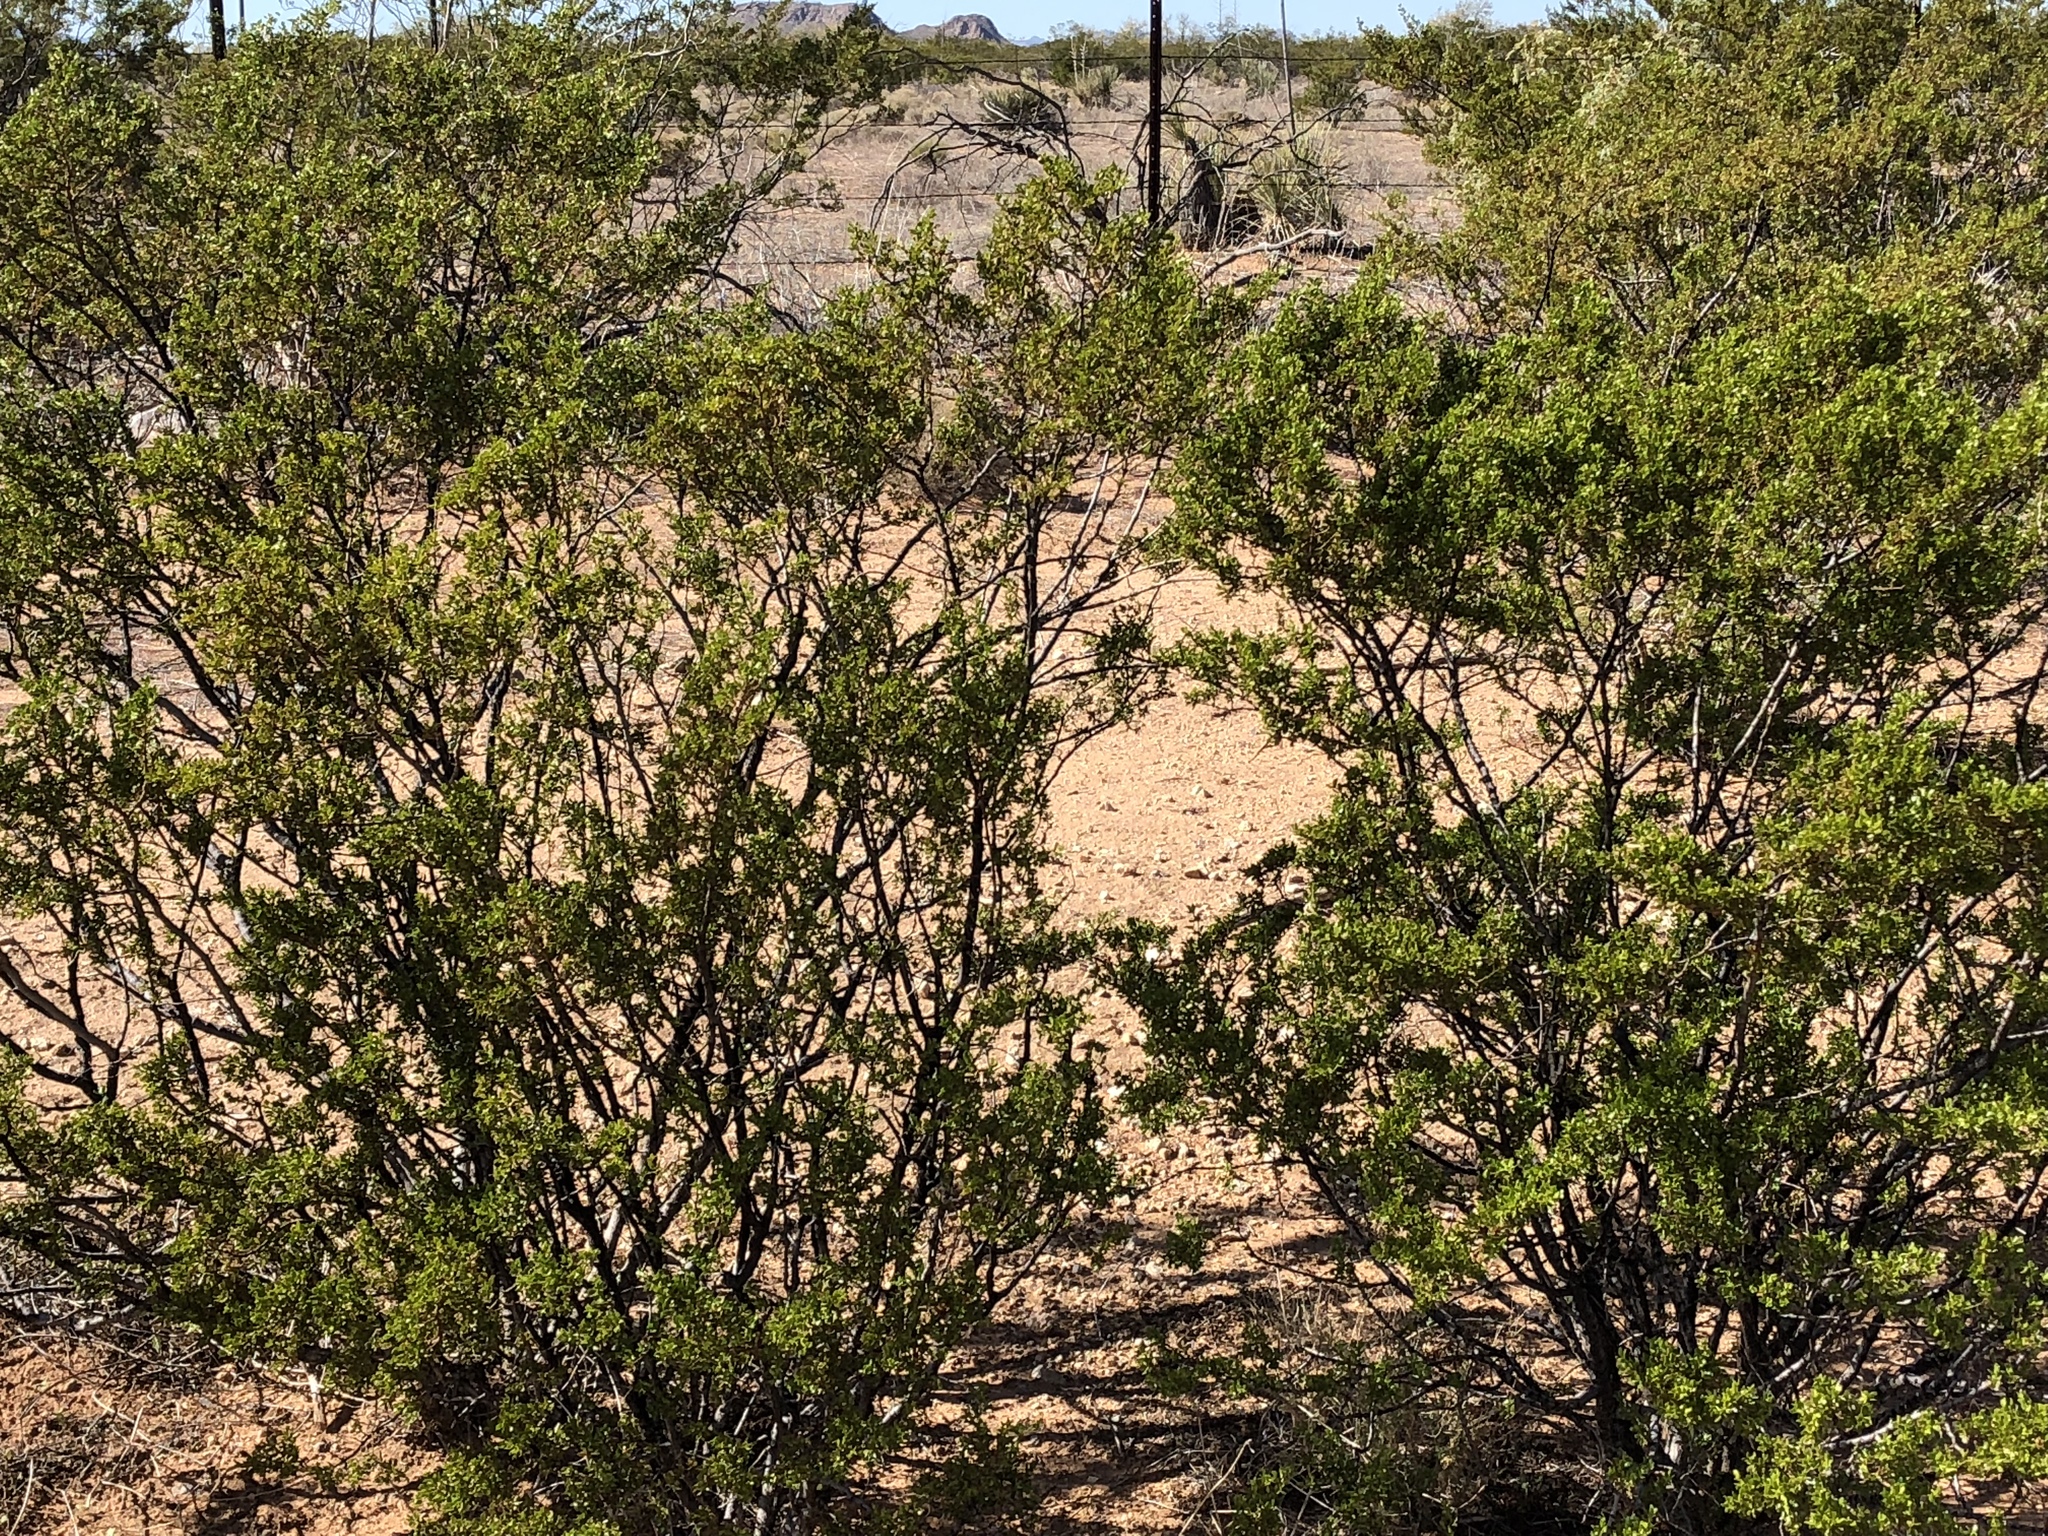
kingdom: Plantae
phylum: Tracheophyta
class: Magnoliopsida
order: Zygophyllales
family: Zygophyllaceae
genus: Larrea
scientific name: Larrea tridentata
